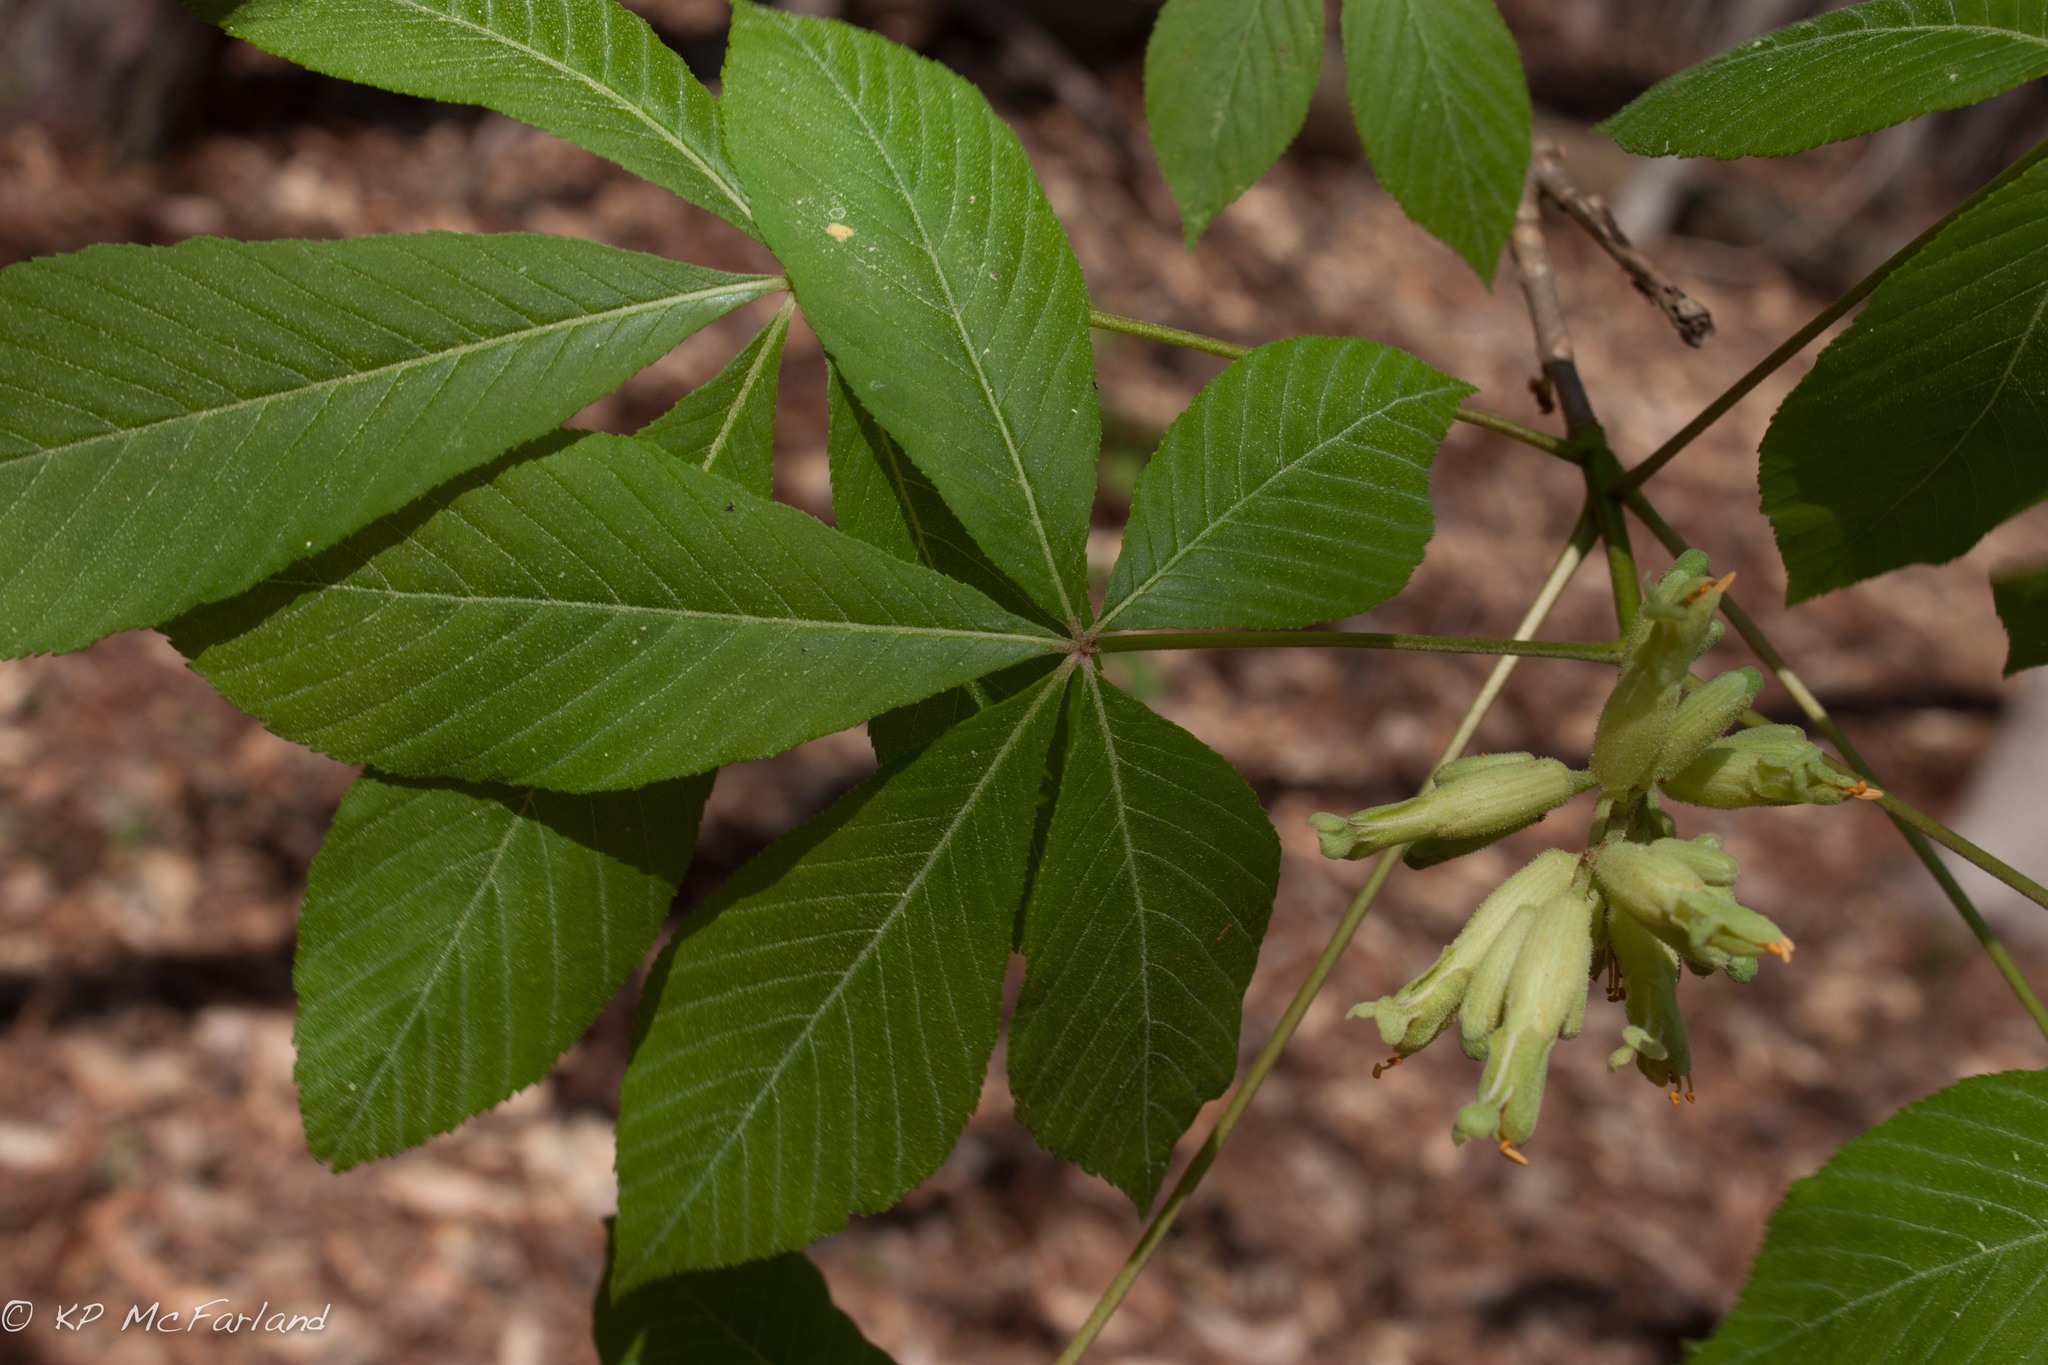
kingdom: Plantae
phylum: Tracheophyta
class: Magnoliopsida
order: Sapindales
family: Sapindaceae
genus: Aesculus
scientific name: Aesculus sylvatica
